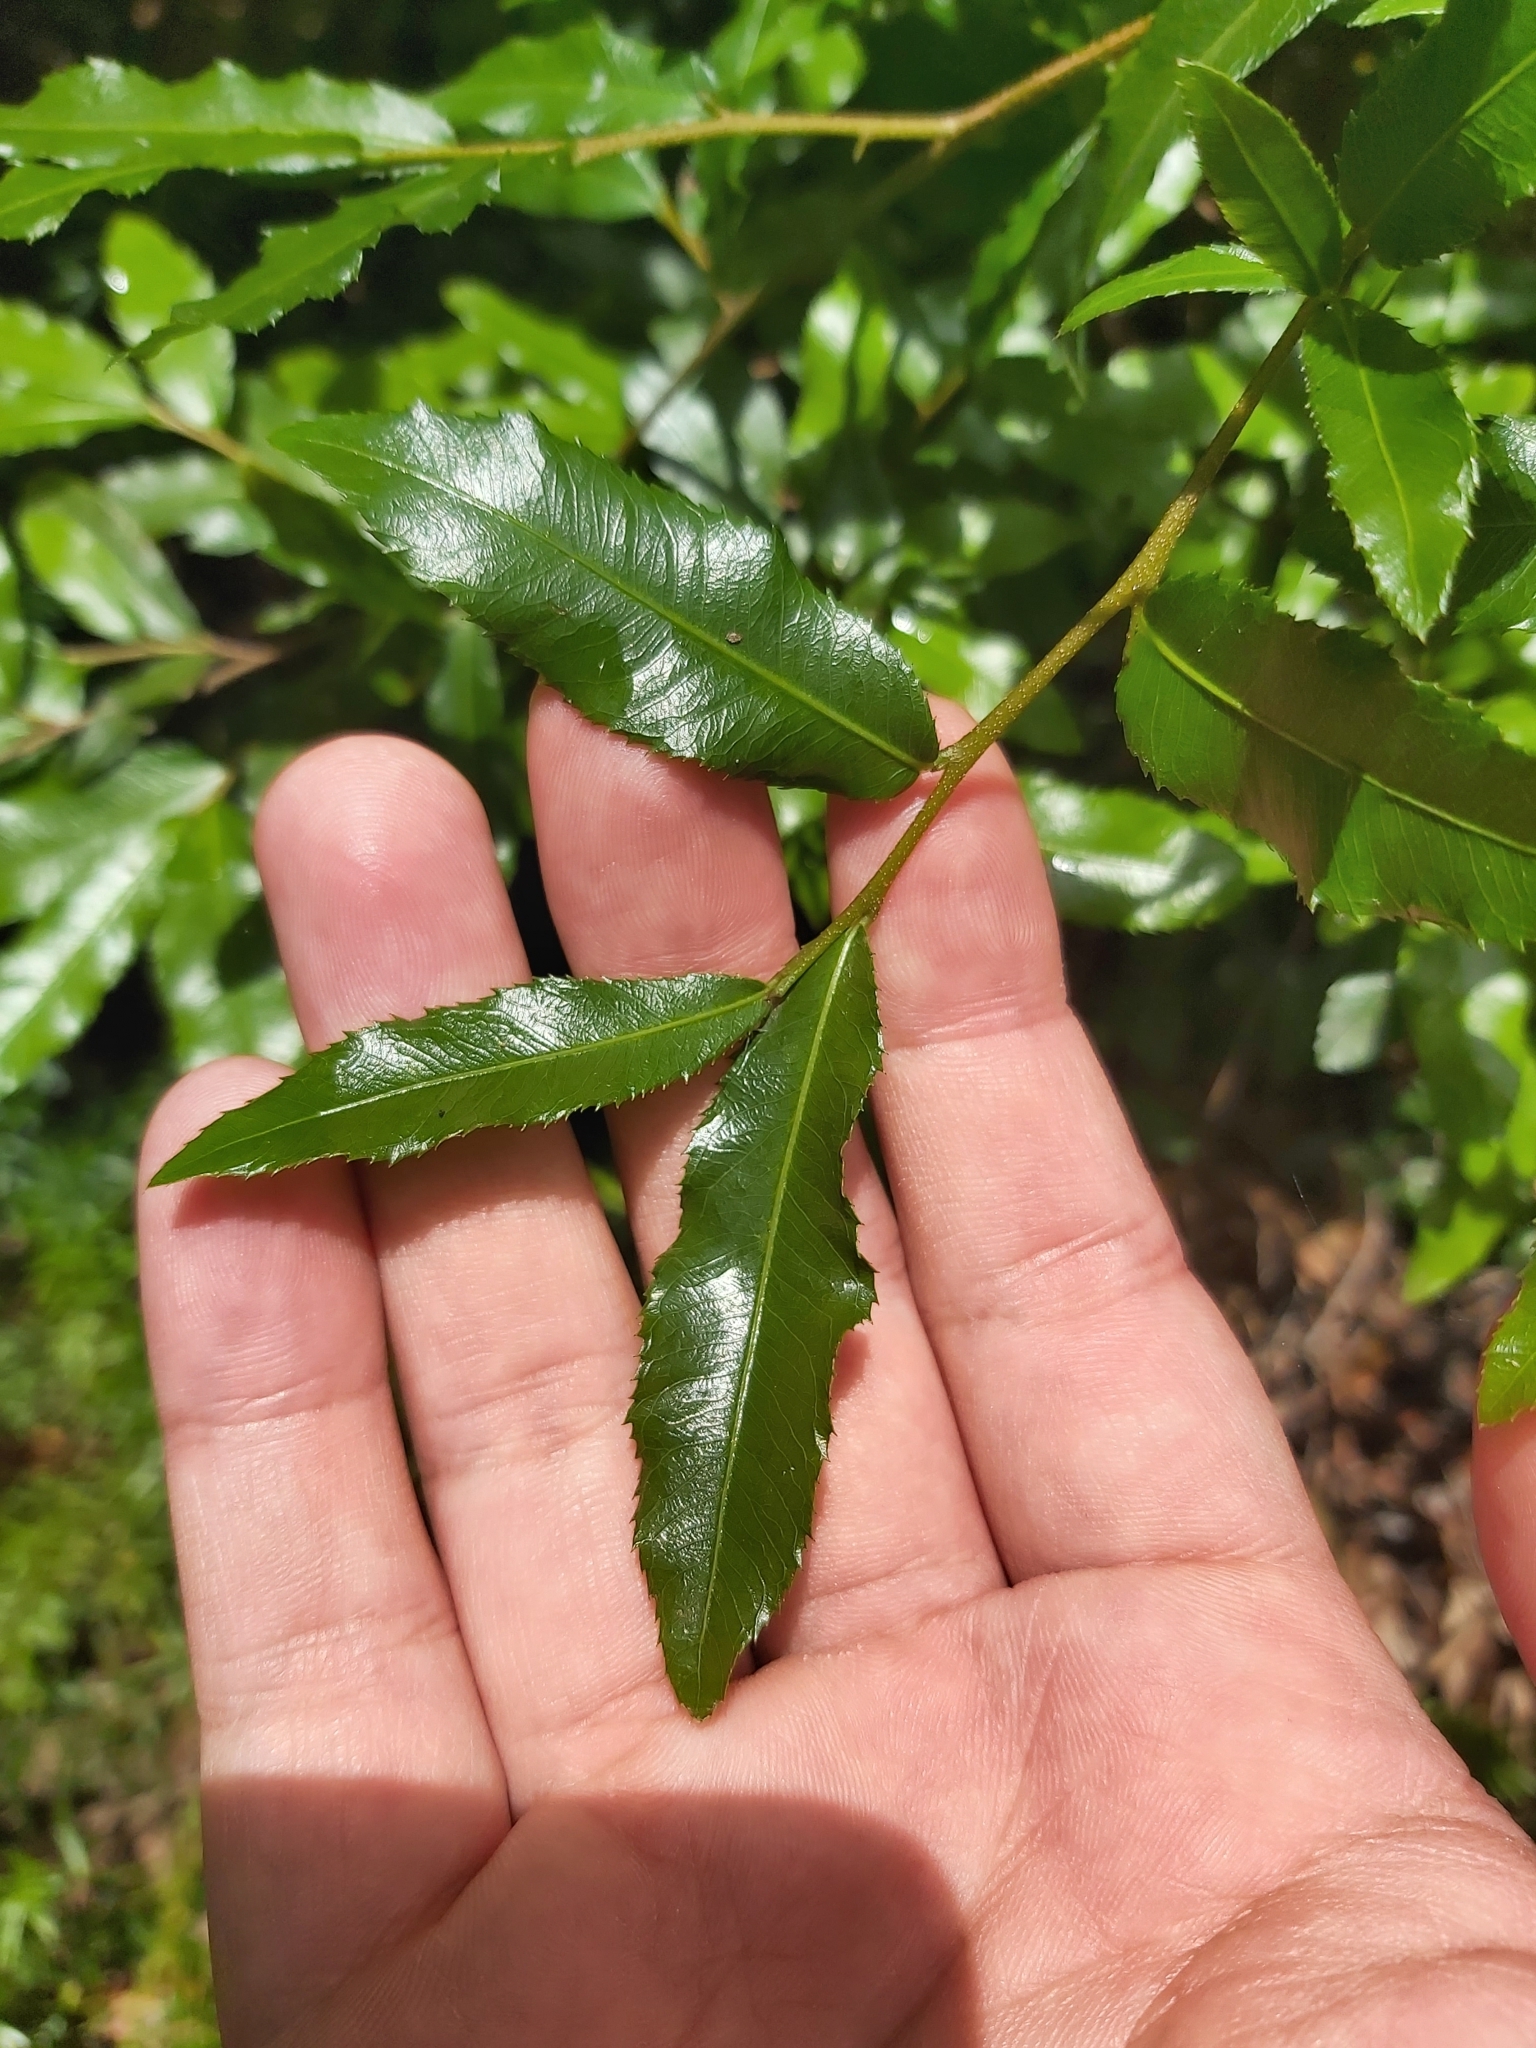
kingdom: Plantae
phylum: Tracheophyta
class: Magnoliopsida
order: Malpighiales
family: Ochnaceae
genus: Ochna
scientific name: Ochna serrulata
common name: Mickey mouse plant
